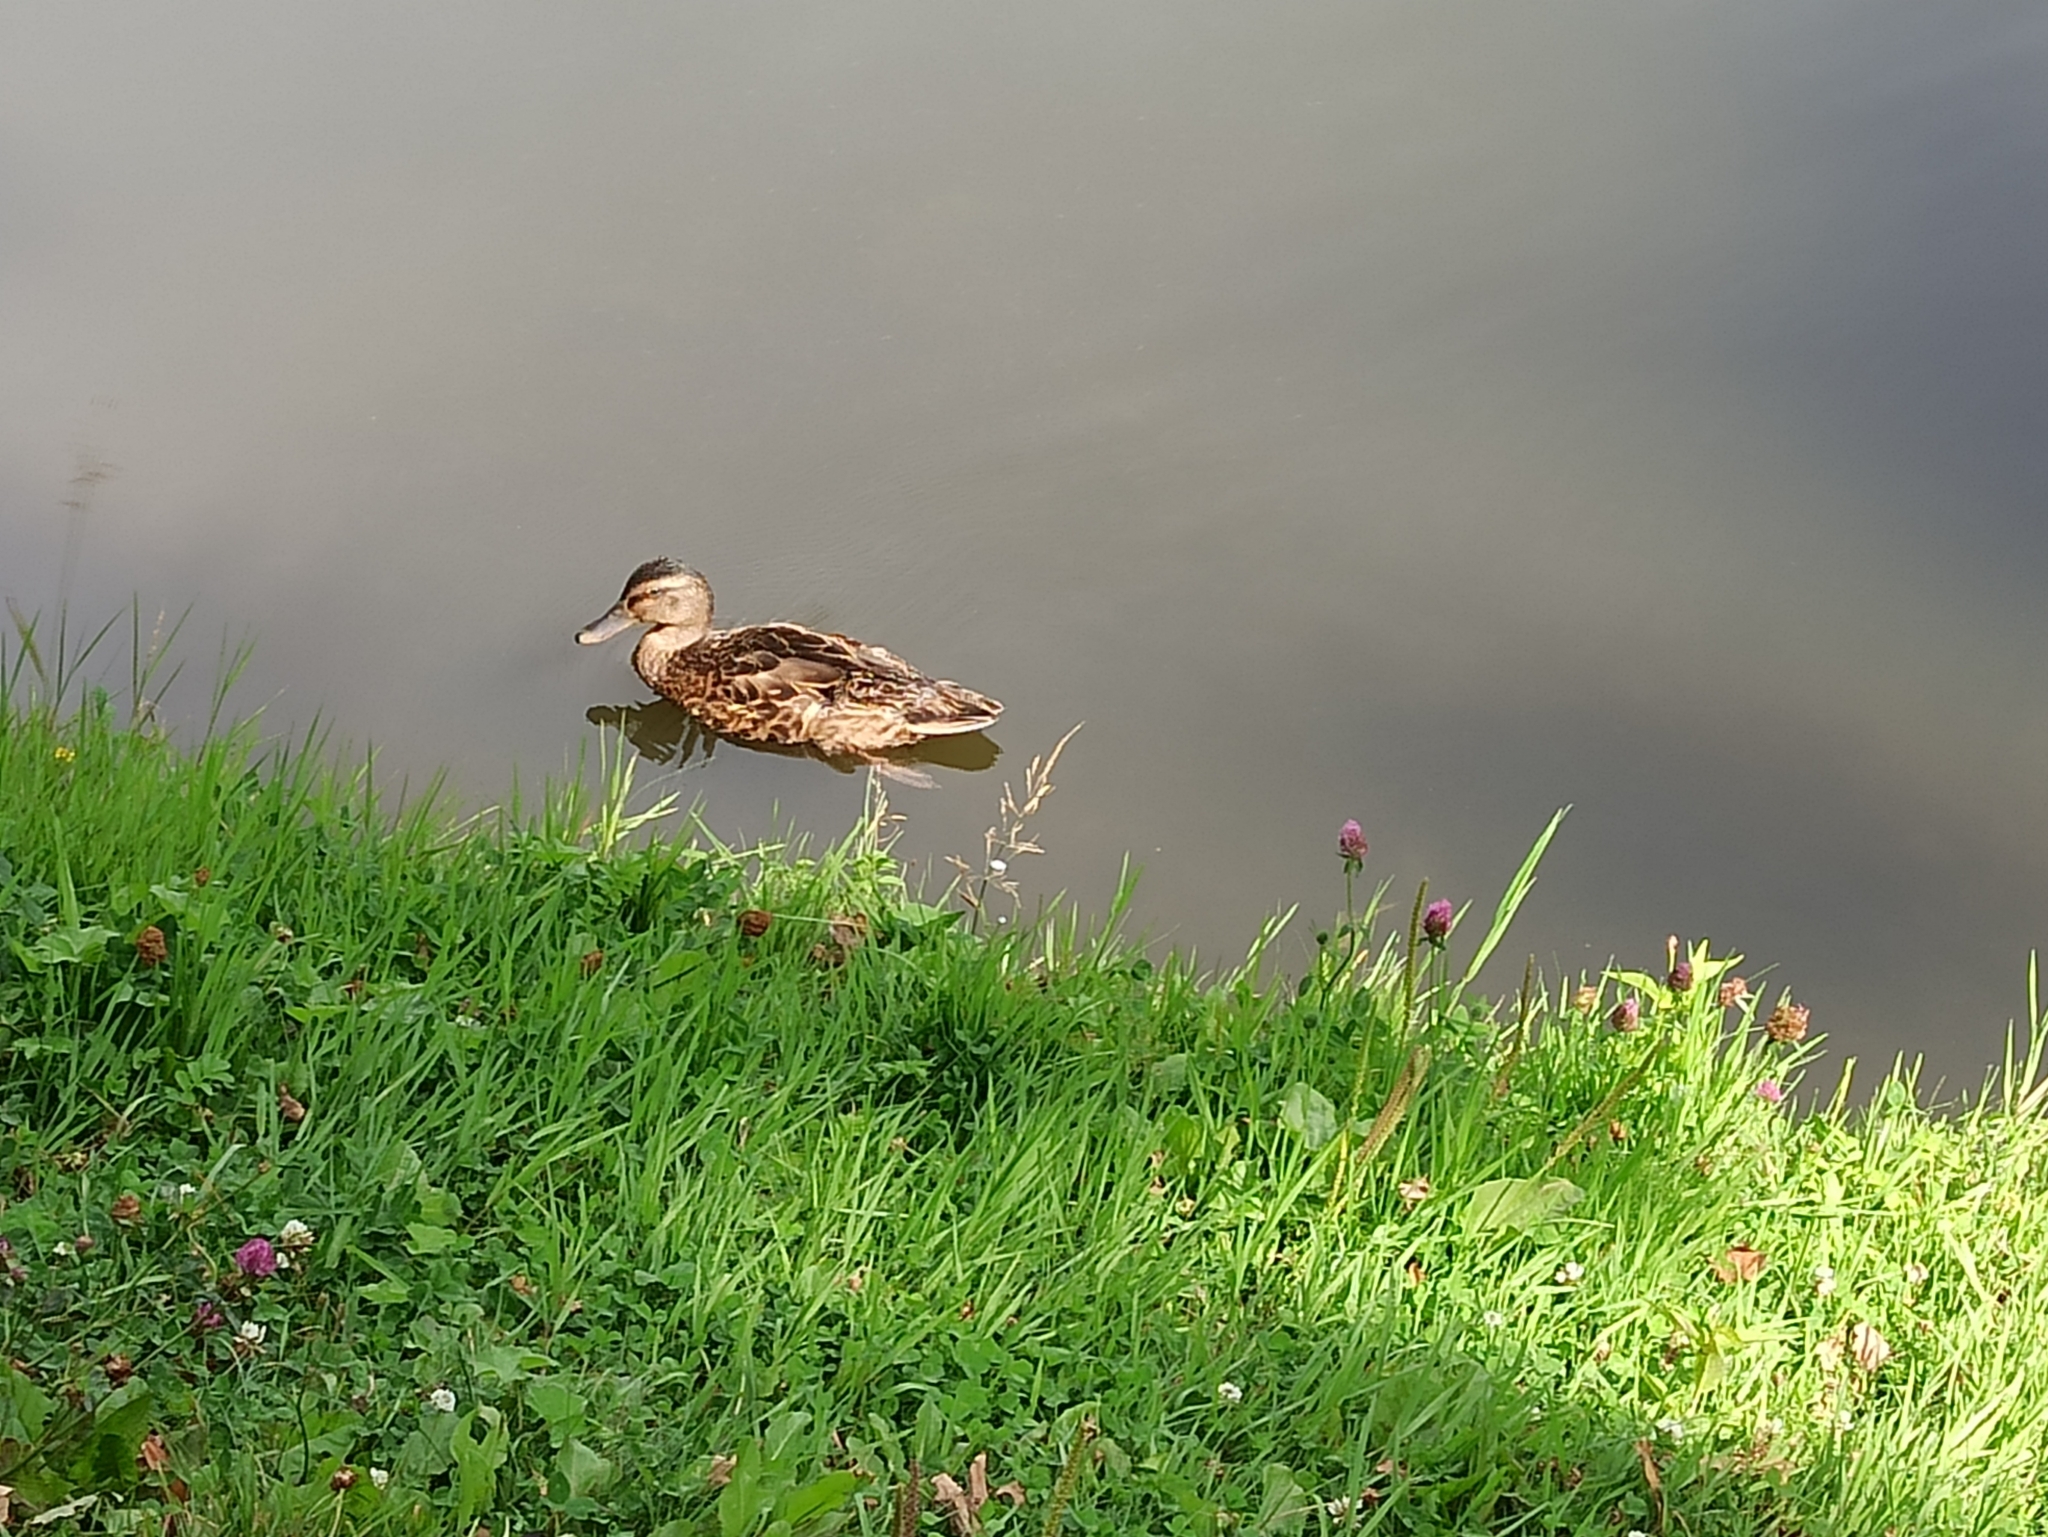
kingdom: Animalia
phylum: Chordata
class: Aves
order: Anseriformes
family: Anatidae
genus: Anas
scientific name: Anas platyrhynchos
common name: Mallard
